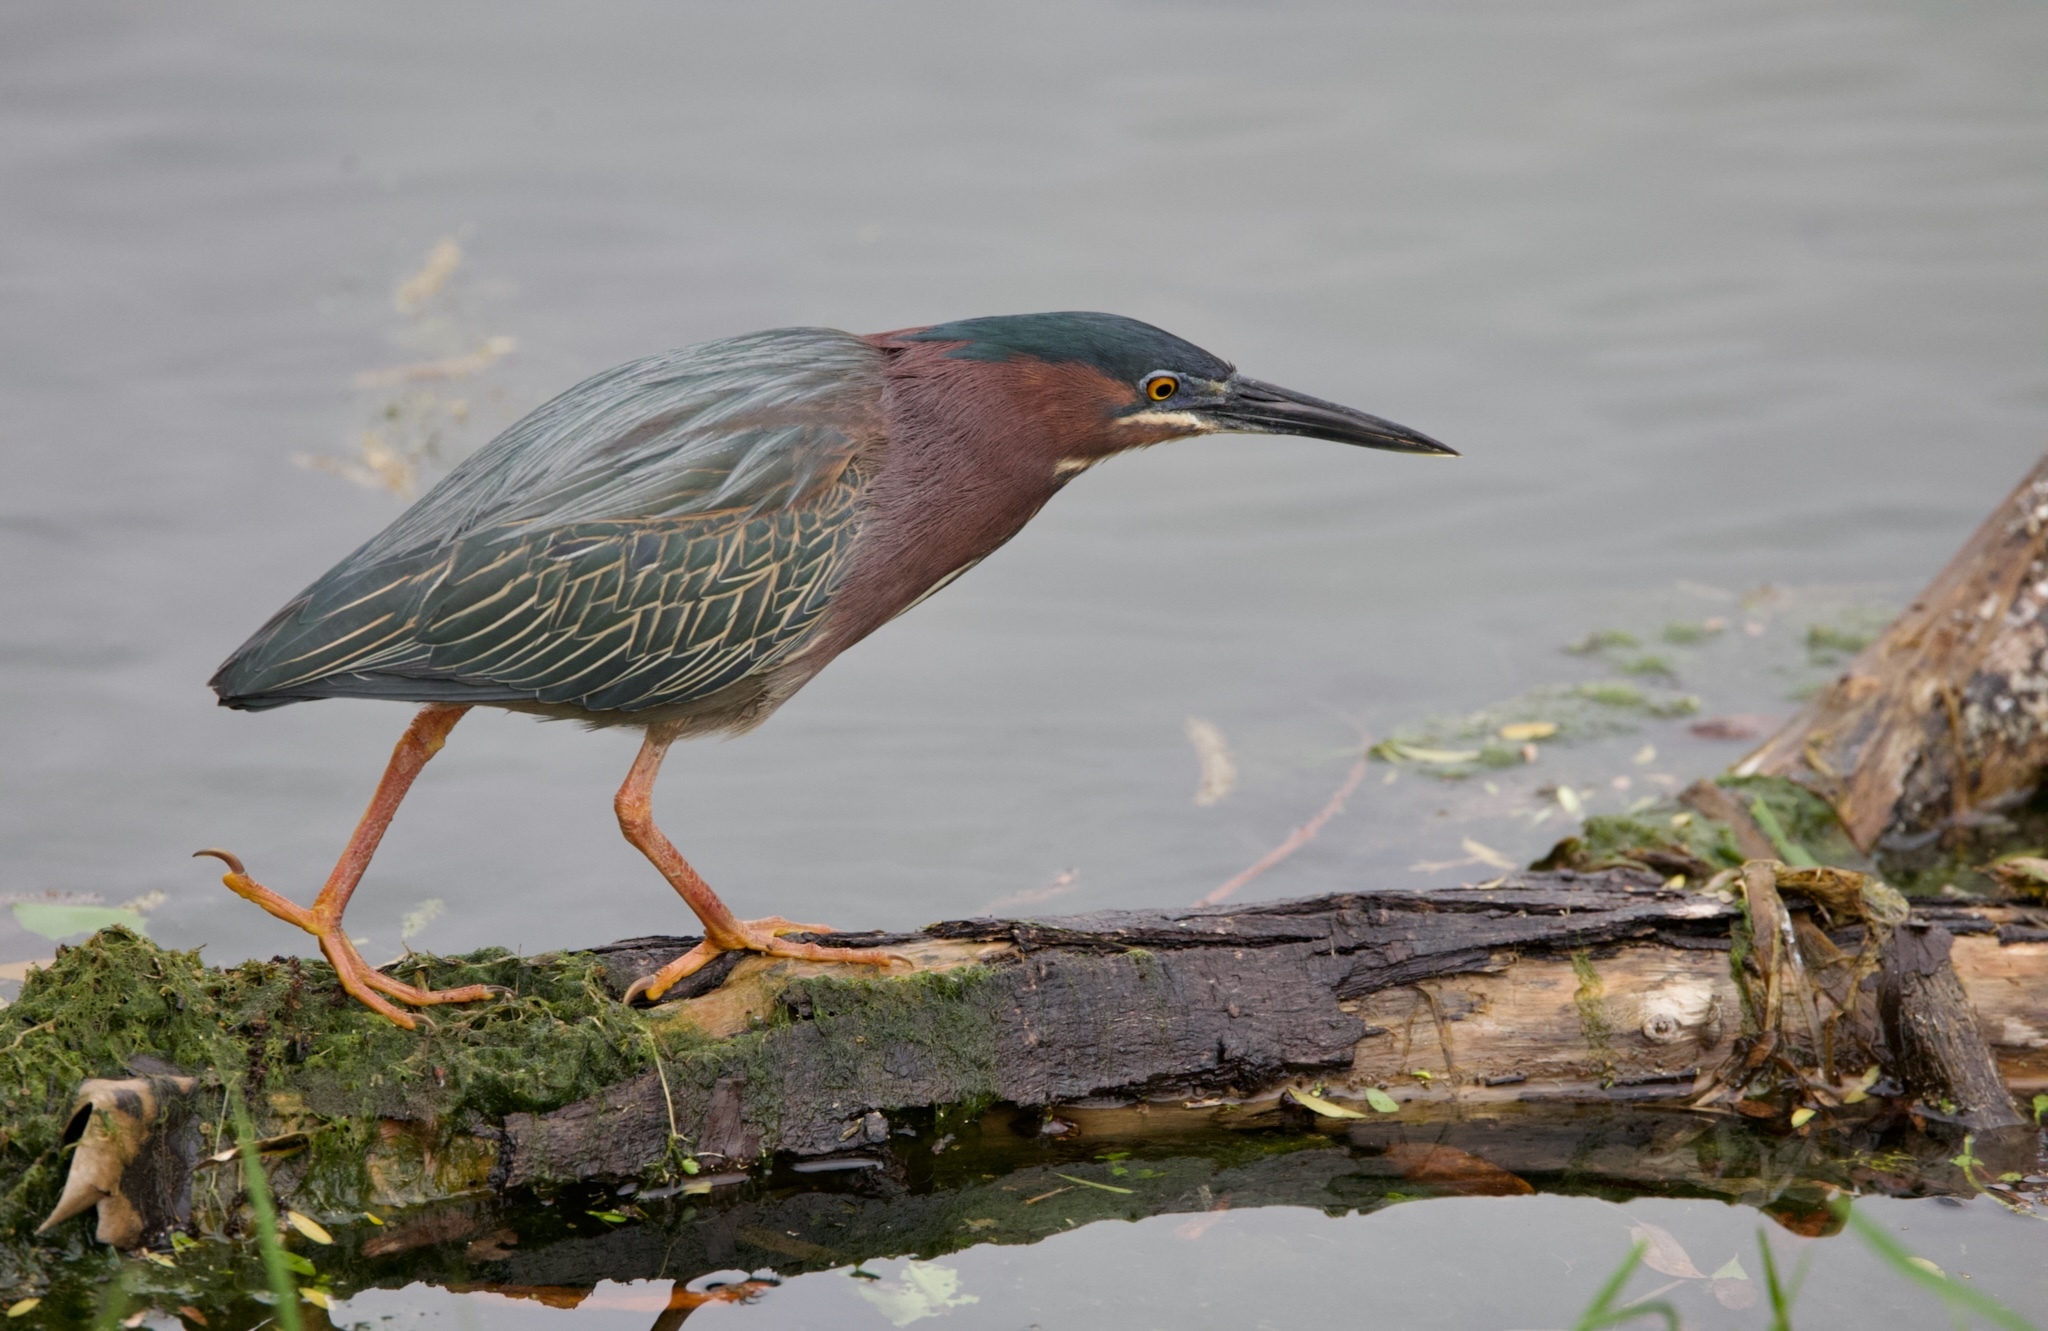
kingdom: Animalia
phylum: Chordata
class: Aves
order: Pelecaniformes
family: Ardeidae
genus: Butorides
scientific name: Butorides virescens
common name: Green heron
